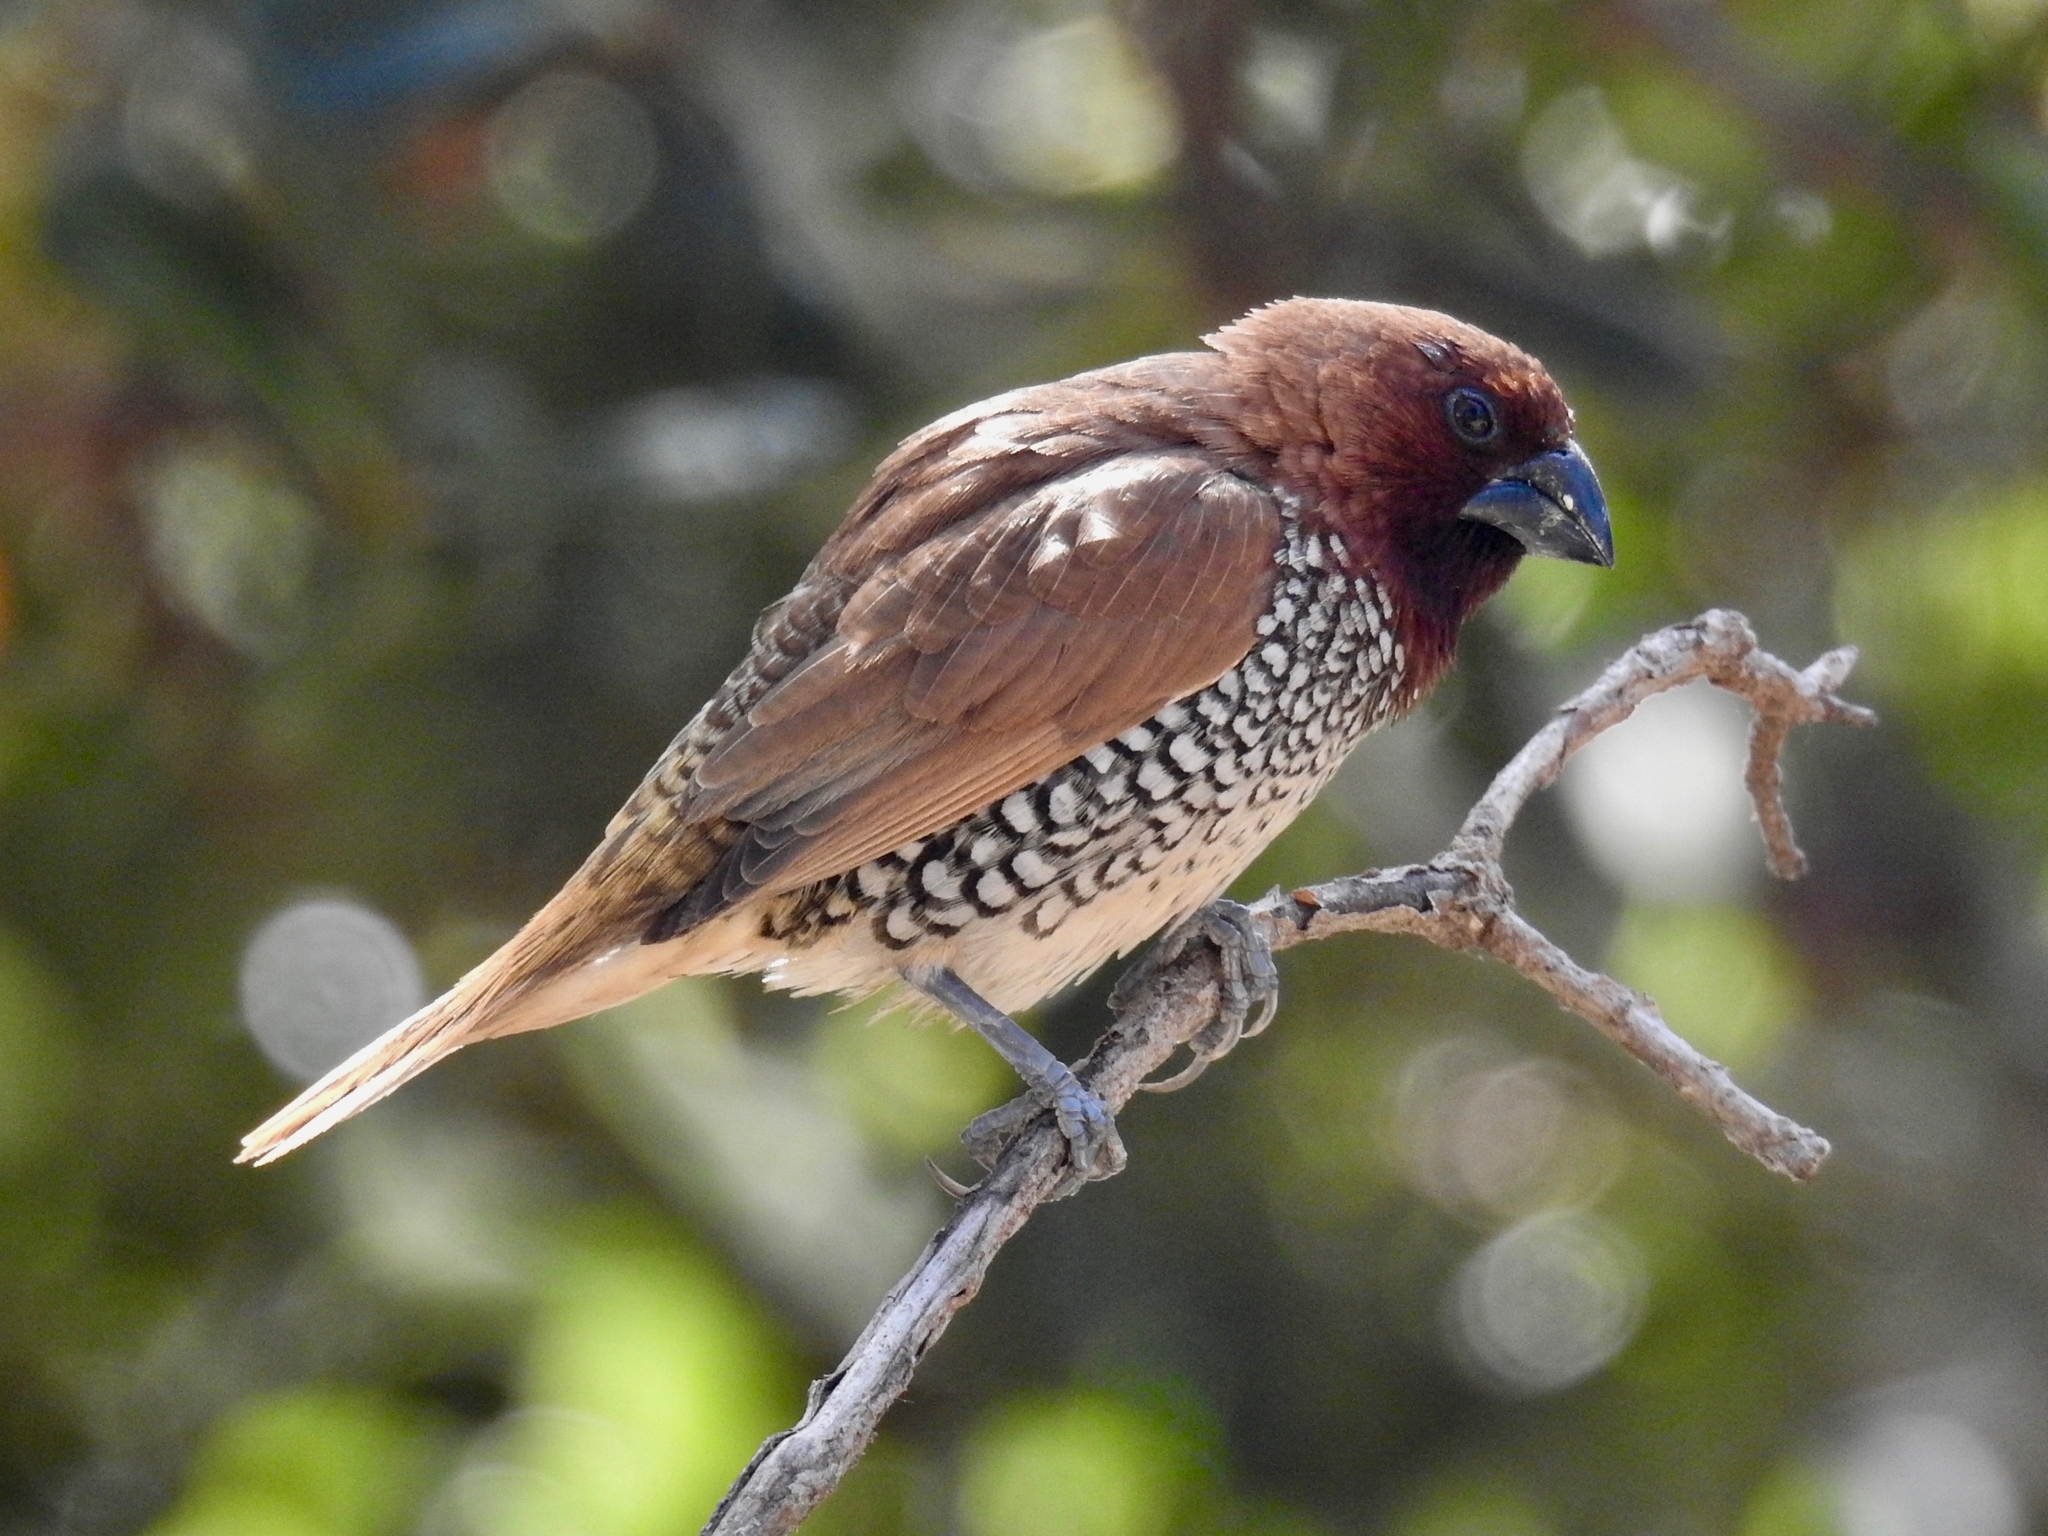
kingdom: Animalia
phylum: Chordata
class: Aves
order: Passeriformes
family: Estrildidae
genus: Lonchura
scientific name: Lonchura punctulata
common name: Scaly-breasted munia
